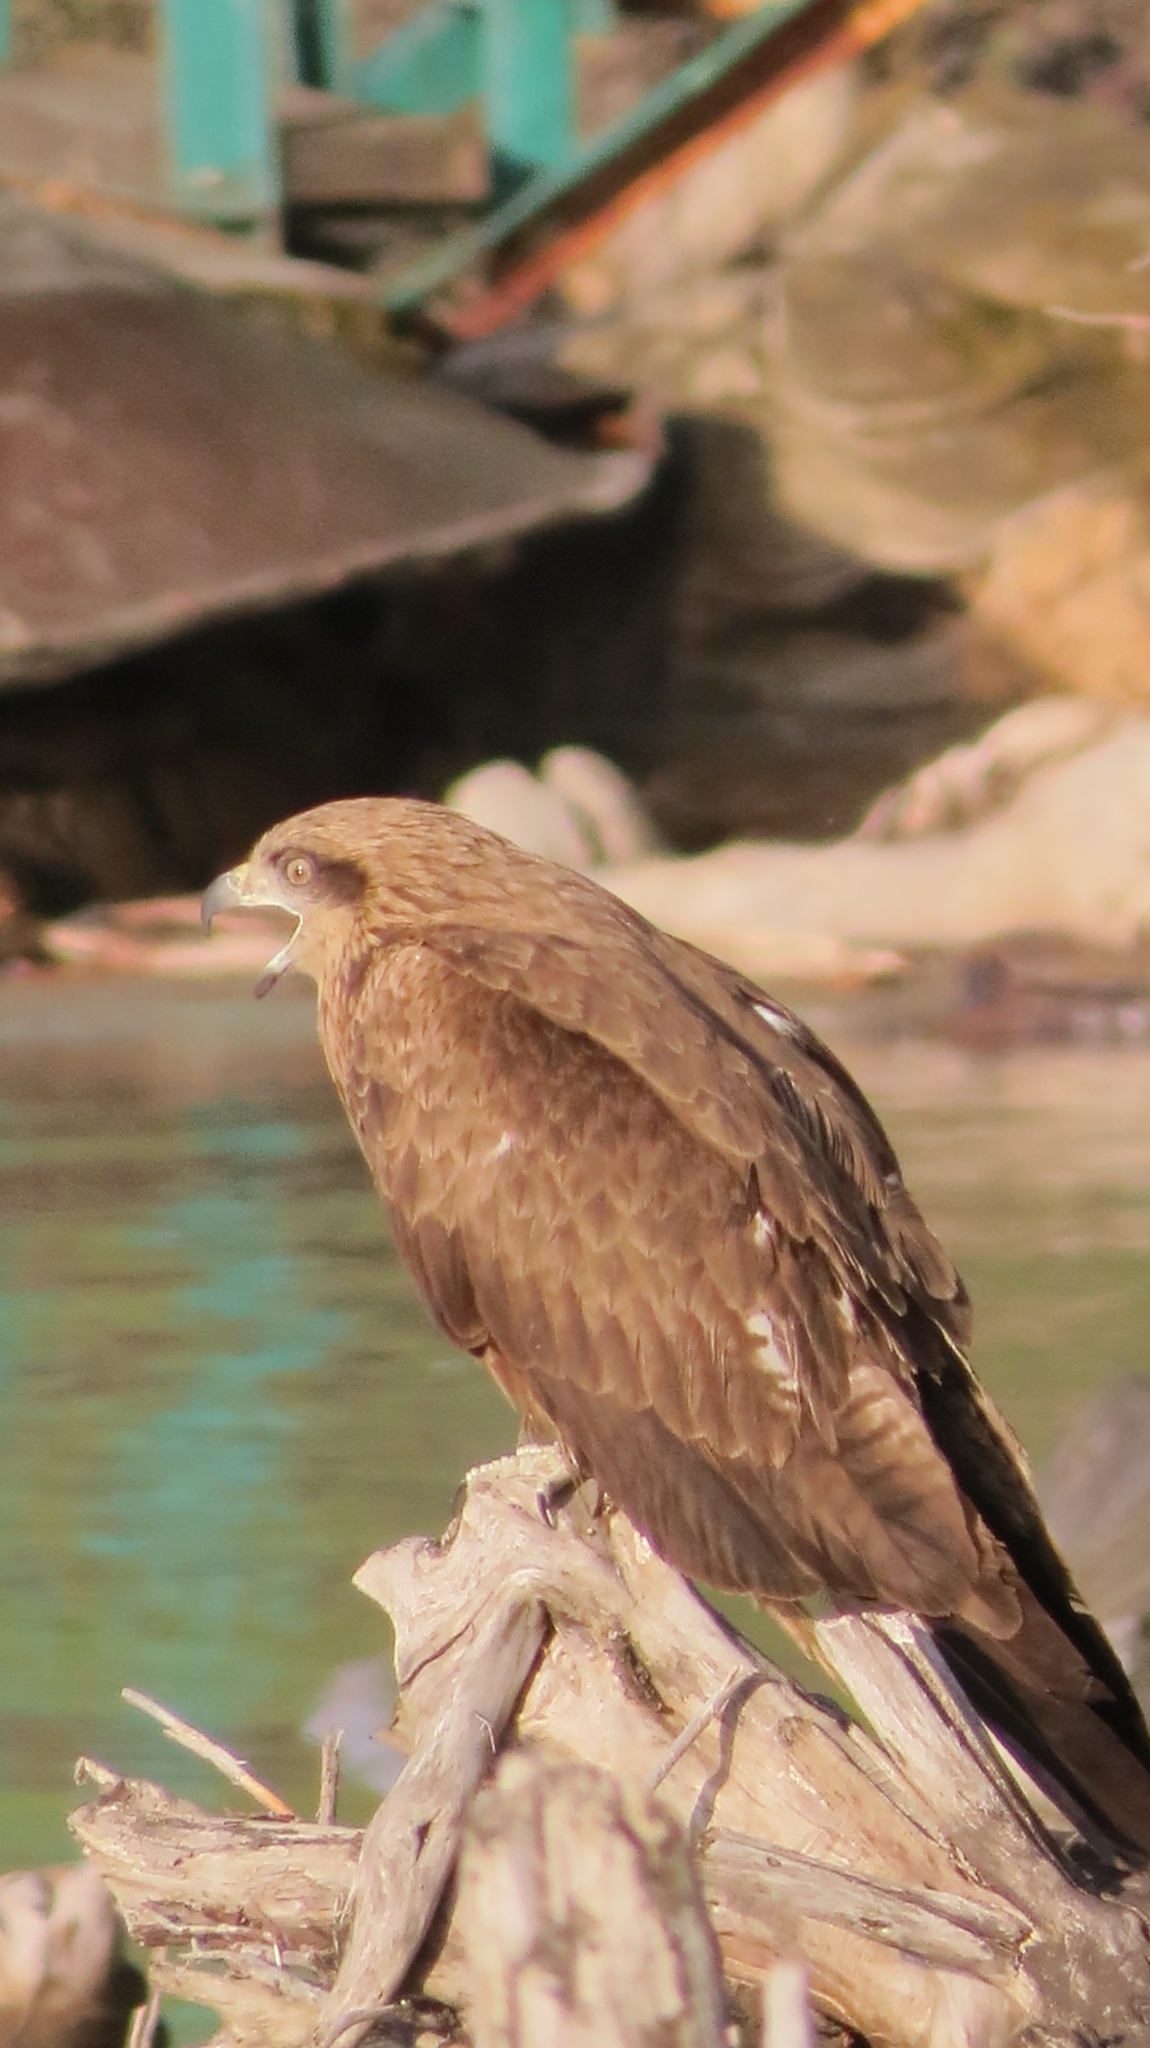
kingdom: Animalia
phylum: Chordata
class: Aves
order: Accipitriformes
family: Accipitridae
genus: Milvus
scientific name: Milvus migrans
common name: Black kite
